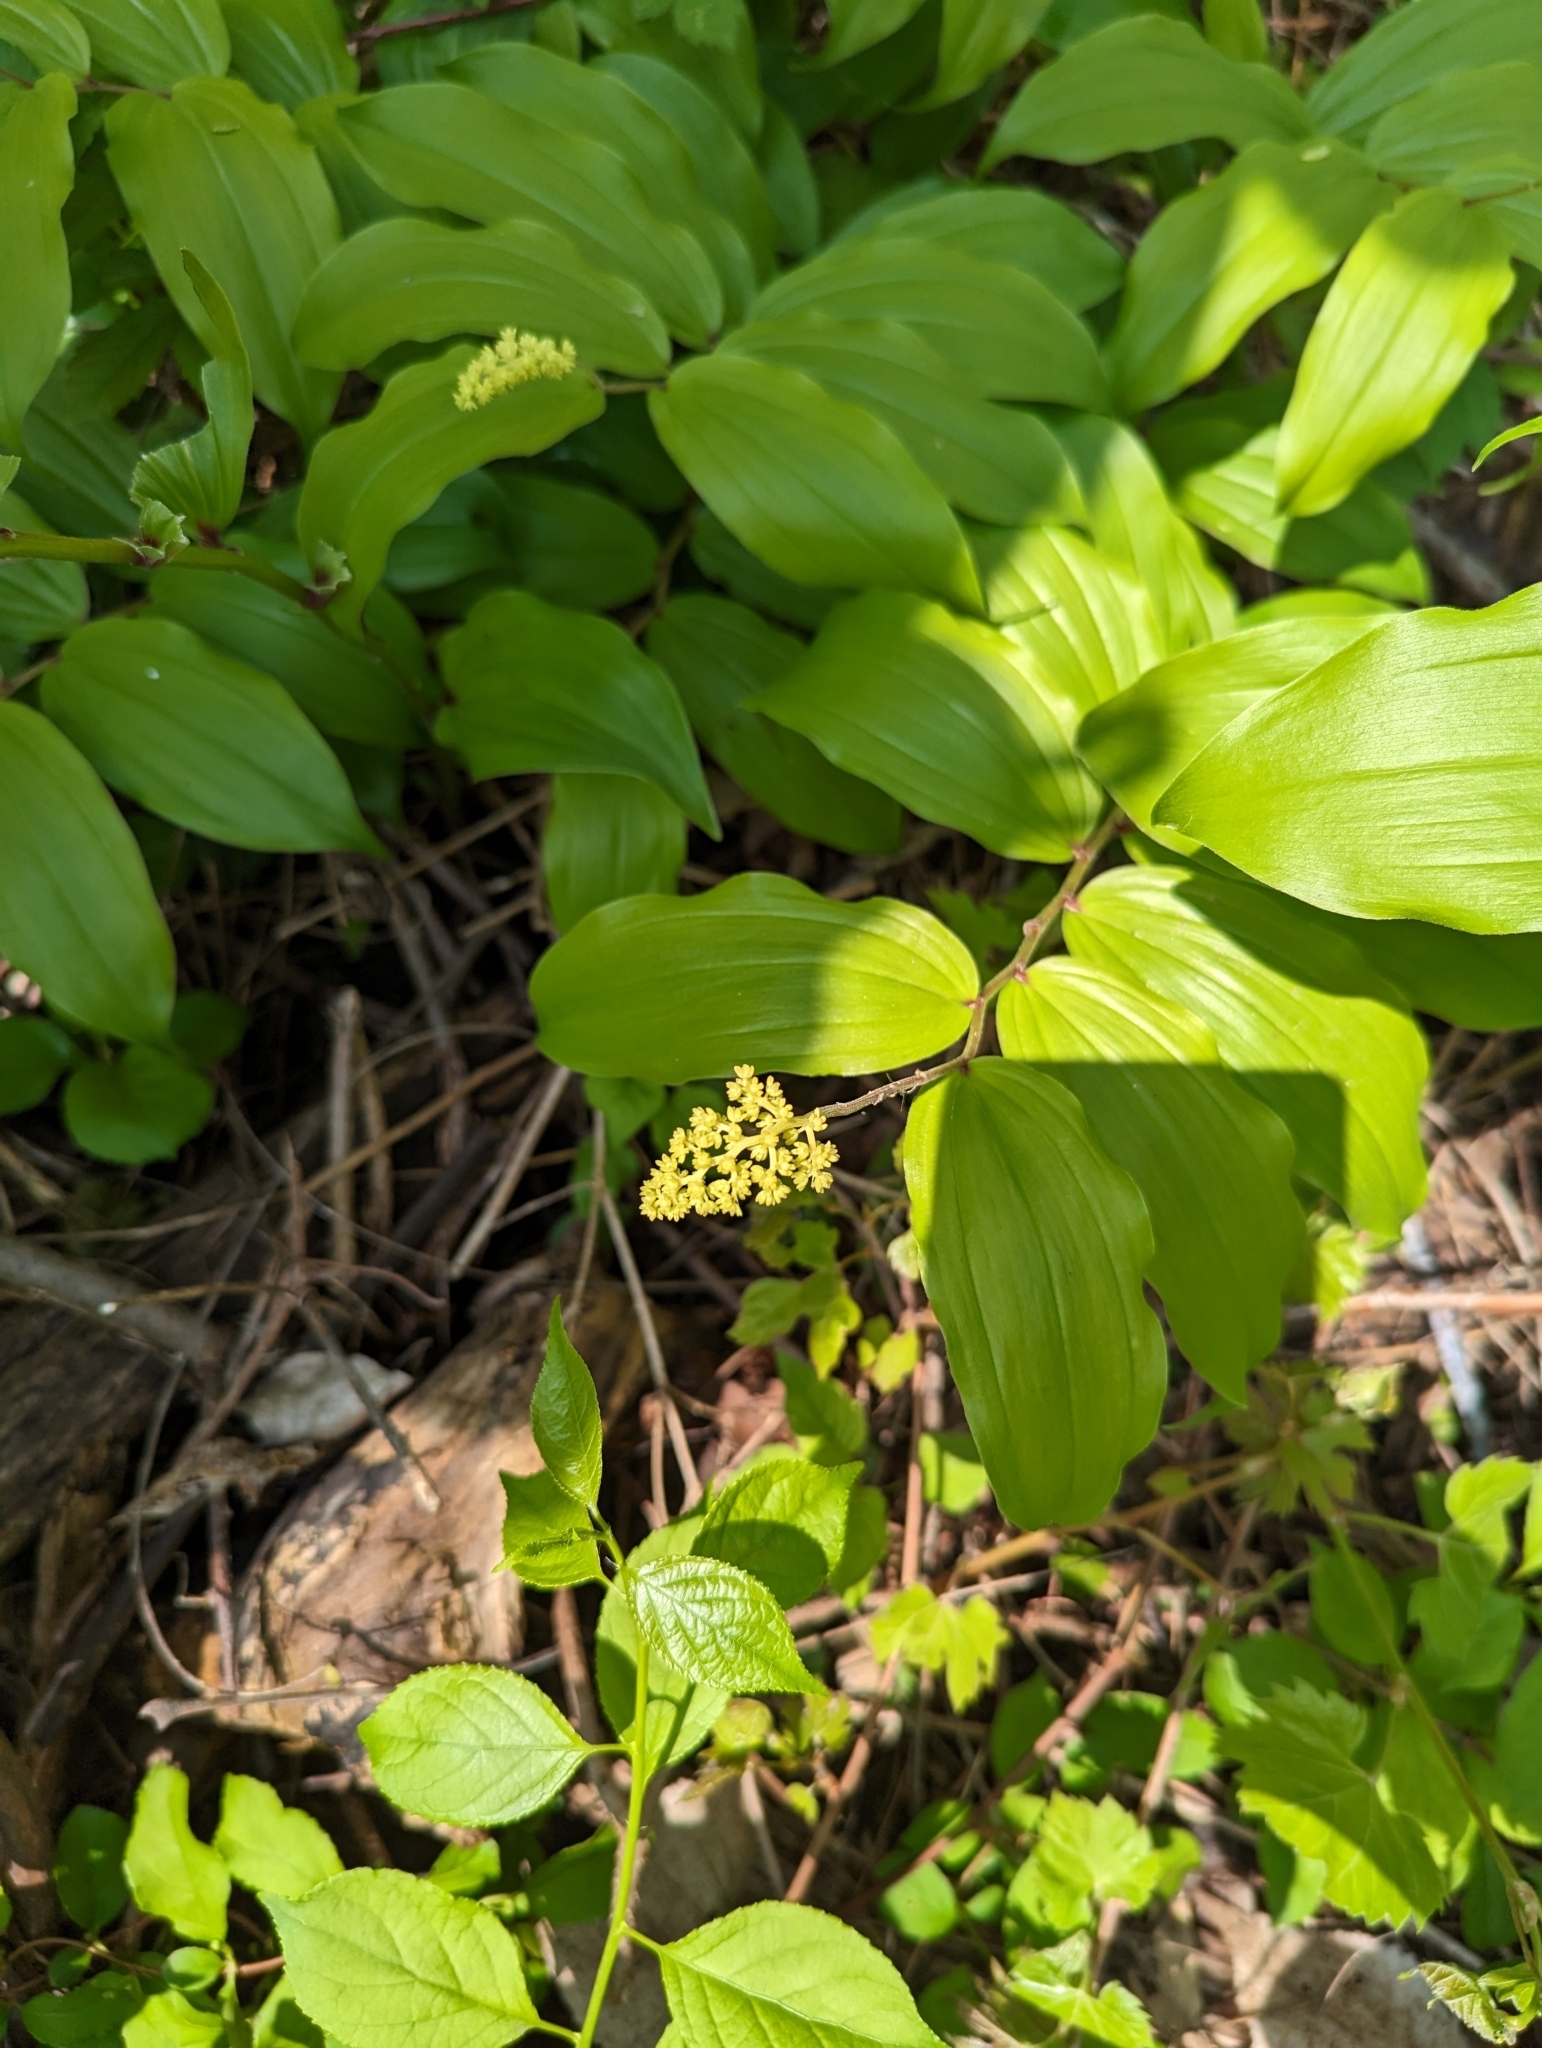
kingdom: Plantae
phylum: Tracheophyta
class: Liliopsida
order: Asparagales
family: Asparagaceae
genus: Maianthemum
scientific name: Maianthemum racemosum
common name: False spikenard
